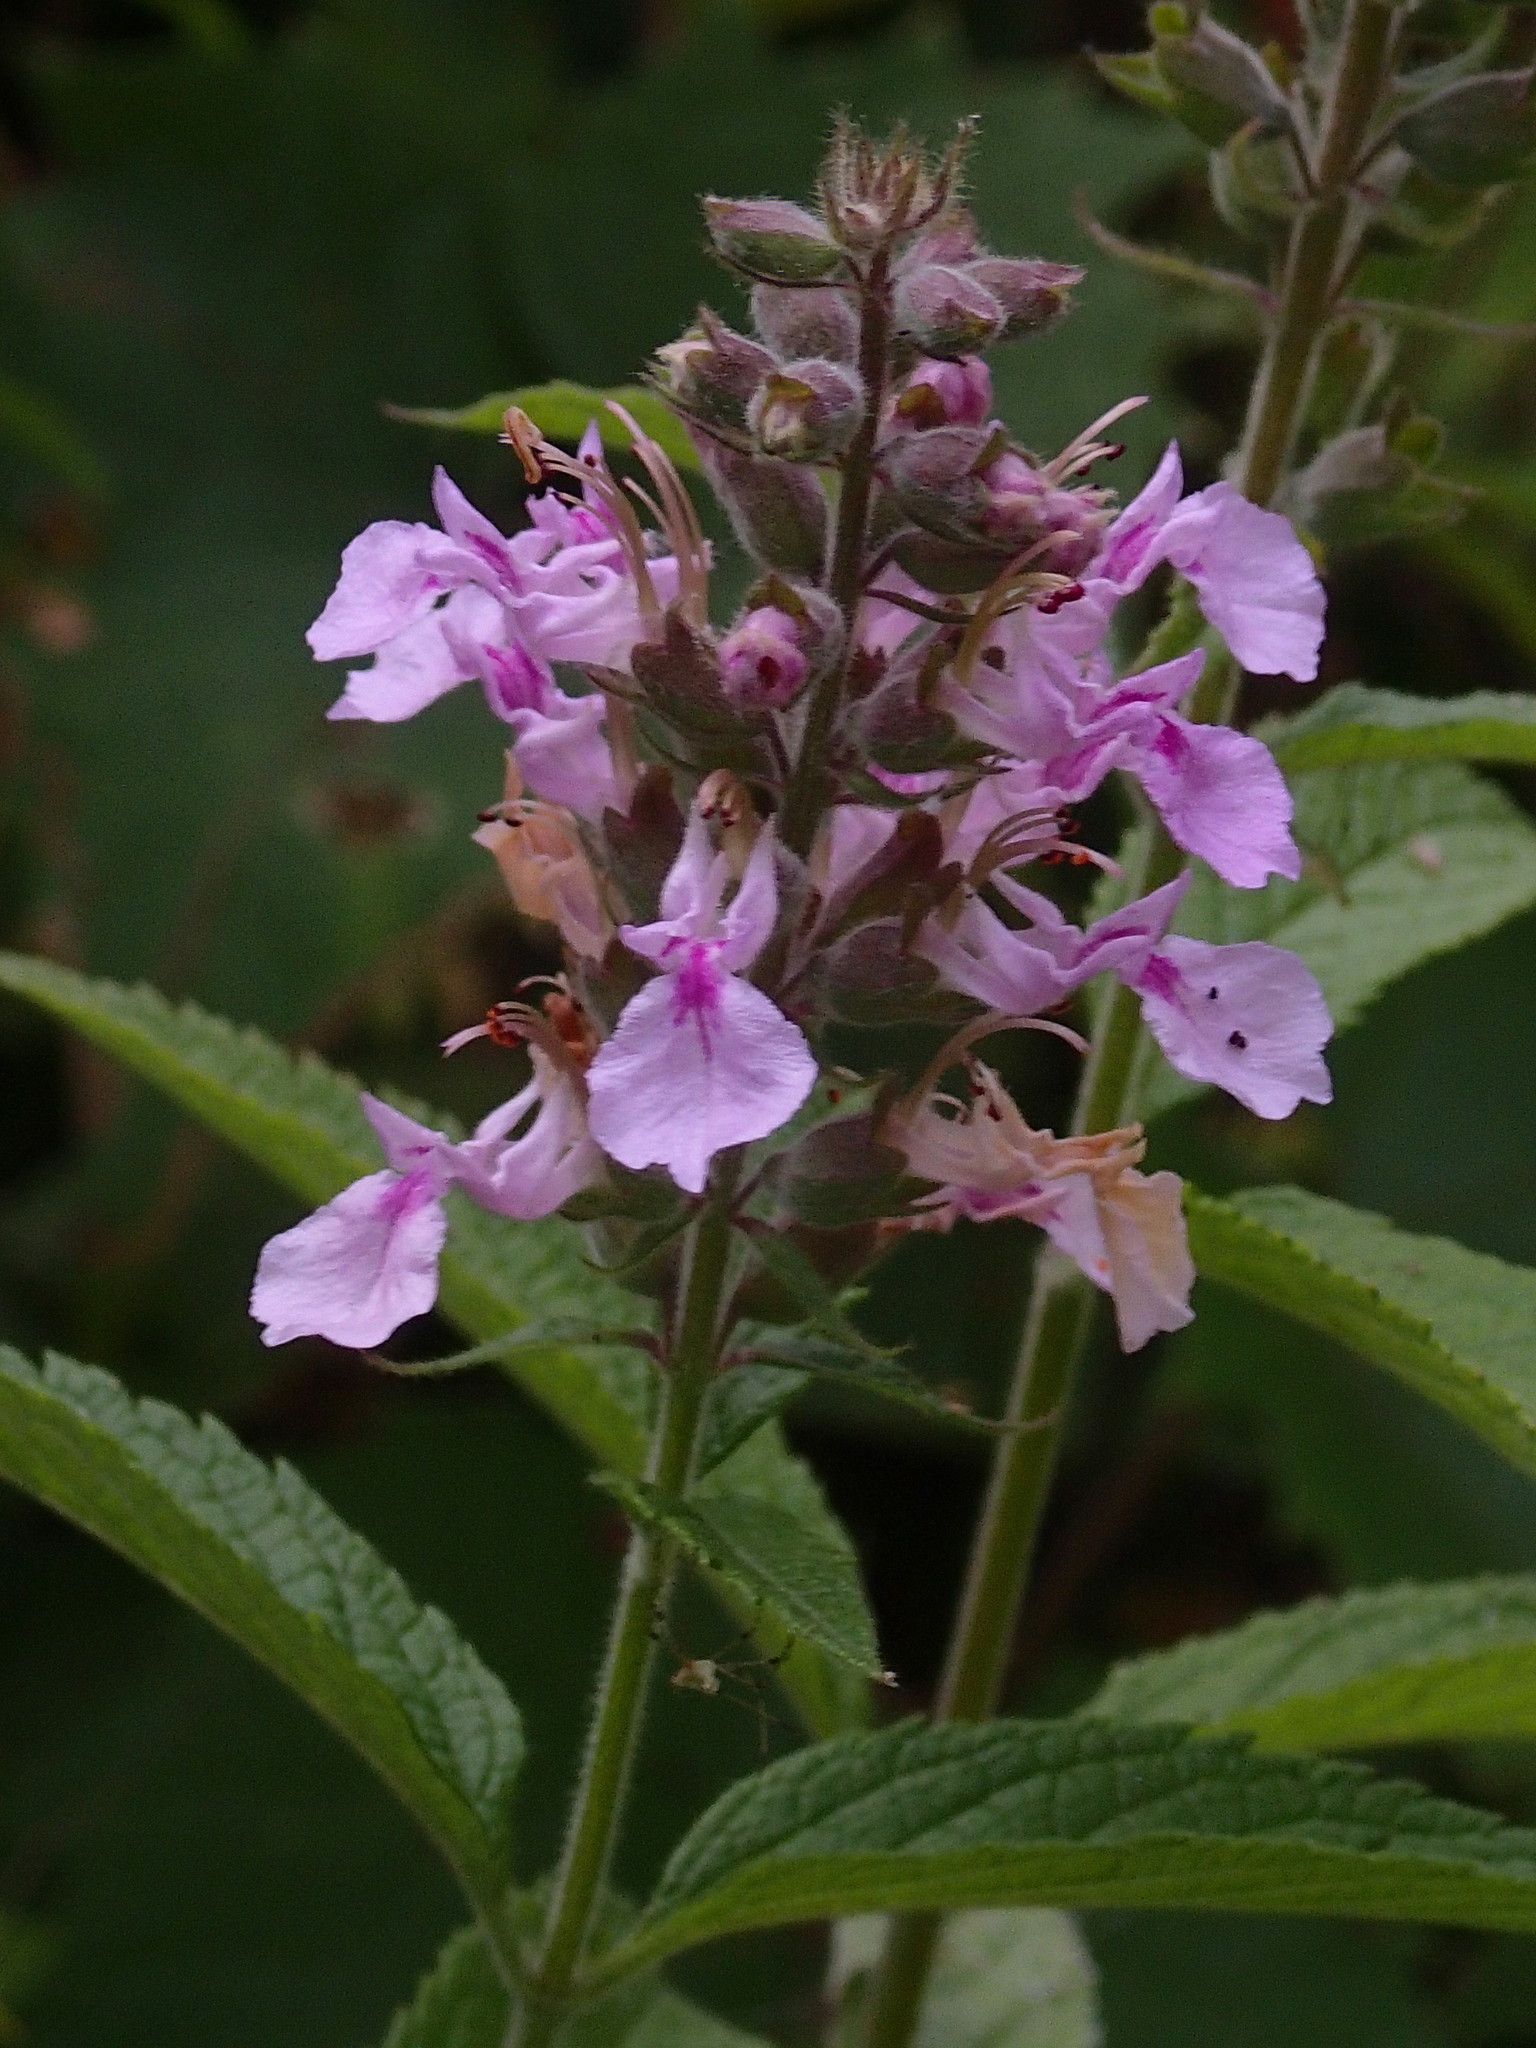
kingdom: Plantae
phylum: Tracheophyta
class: Magnoliopsida
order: Lamiales
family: Lamiaceae
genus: Teucrium
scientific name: Teucrium canadense
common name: American germander
